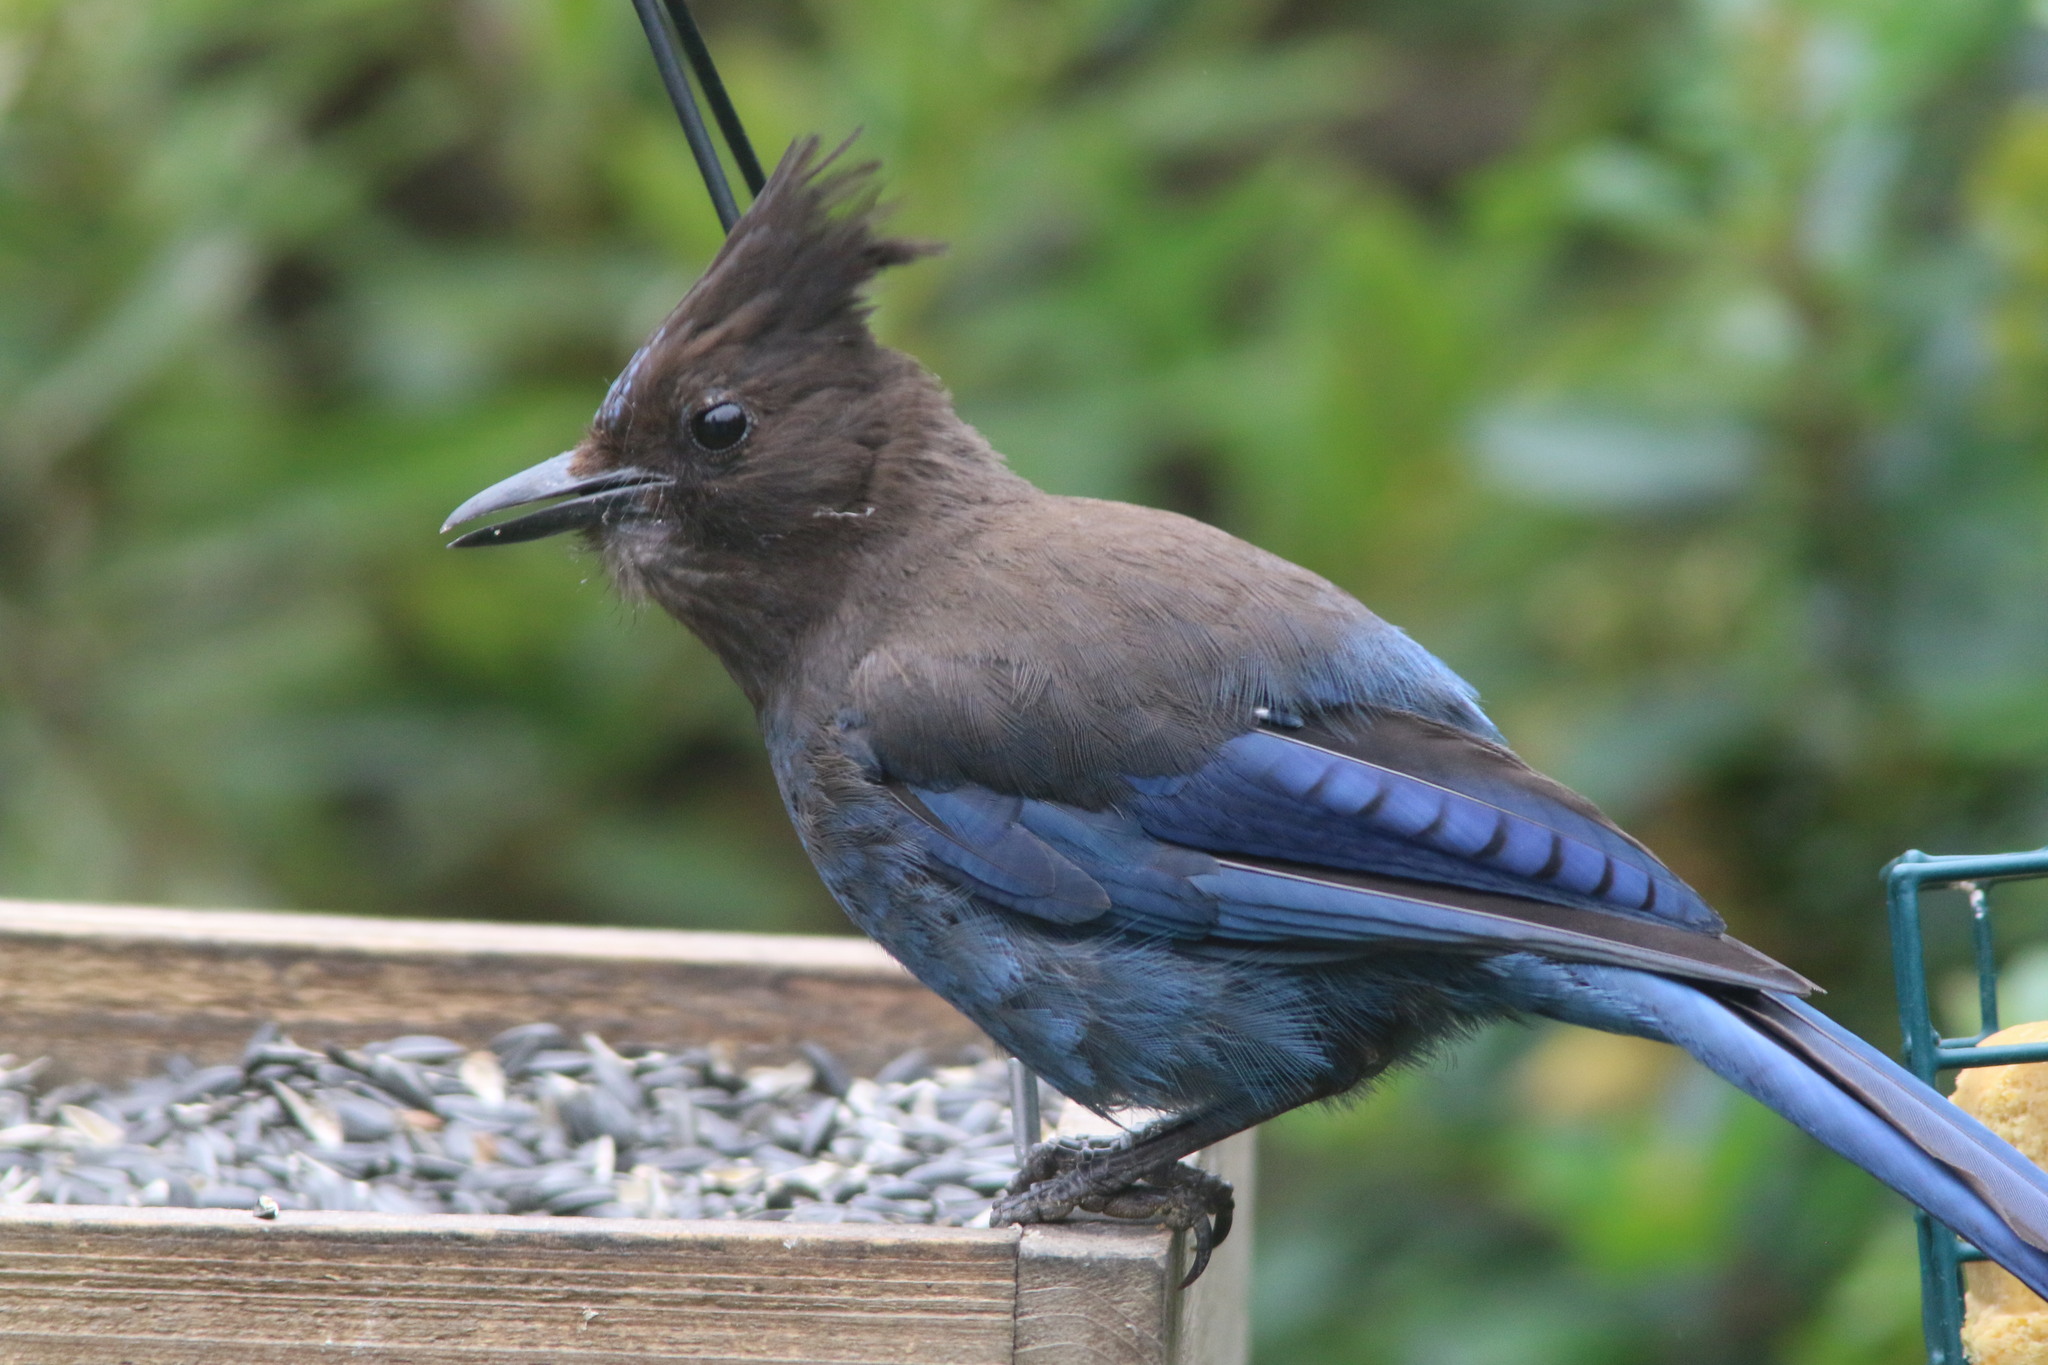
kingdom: Animalia
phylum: Chordata
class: Aves
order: Passeriformes
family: Corvidae
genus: Cyanocitta
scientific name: Cyanocitta stelleri
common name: Steller's jay
